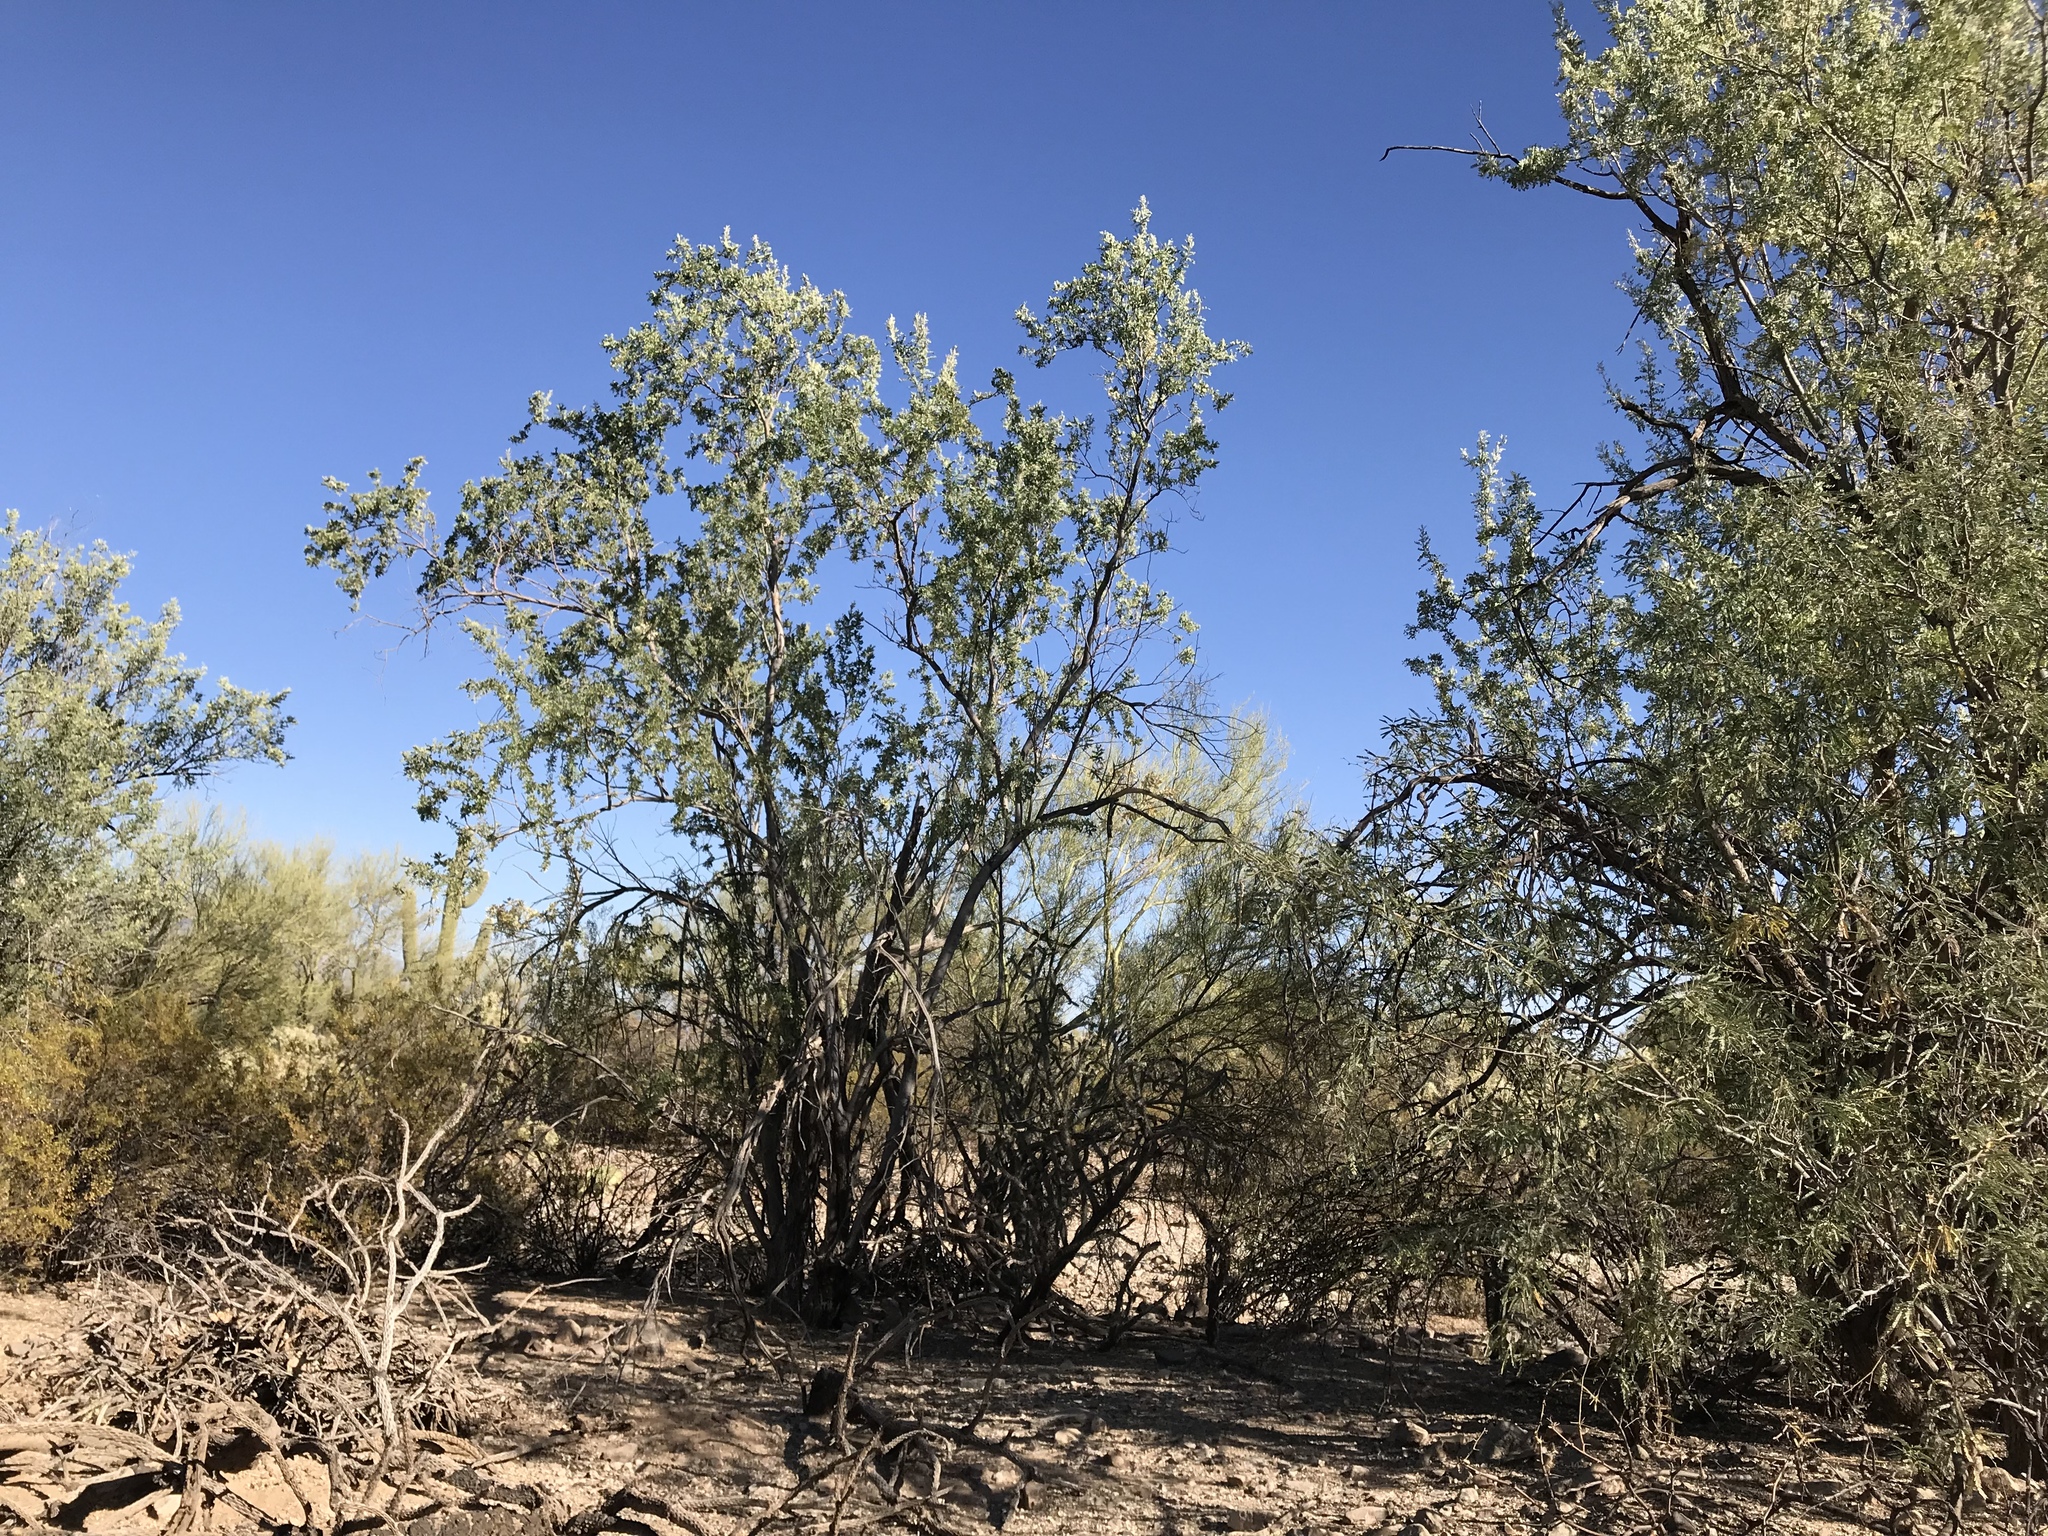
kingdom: Plantae
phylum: Tracheophyta
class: Magnoliopsida
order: Fabales
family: Fabaceae
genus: Olneya
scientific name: Olneya tesota
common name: Desert ironwood
